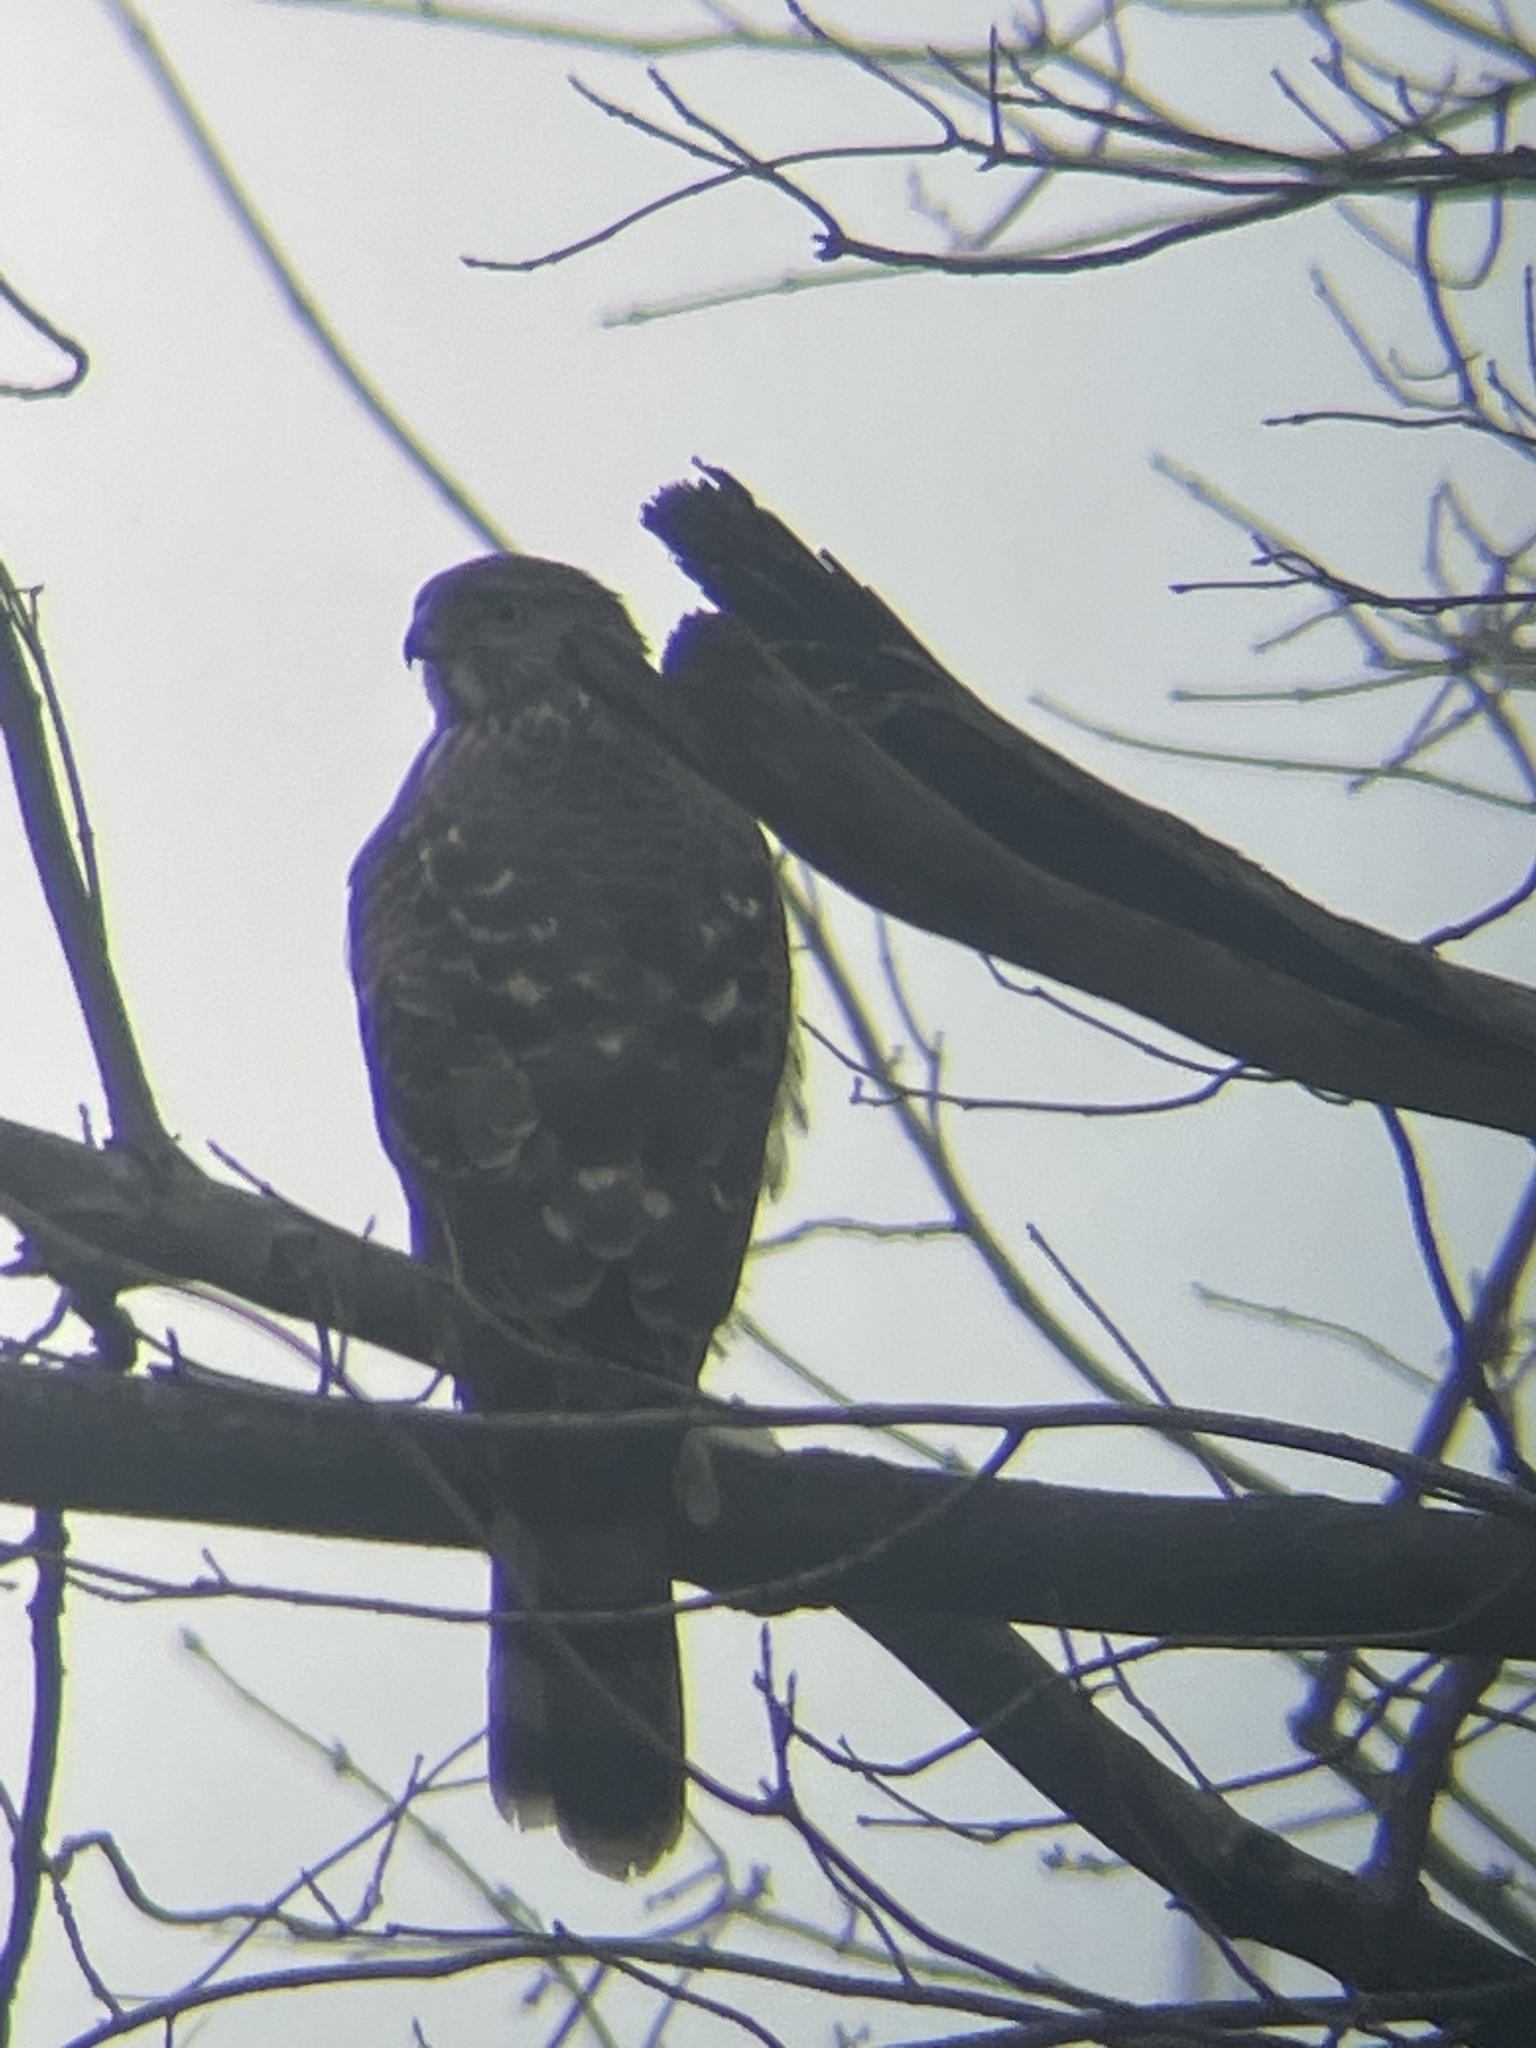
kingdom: Animalia
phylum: Chordata
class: Aves
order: Accipitriformes
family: Accipitridae
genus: Accipiter
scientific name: Accipiter cooperii
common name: Cooper's hawk
